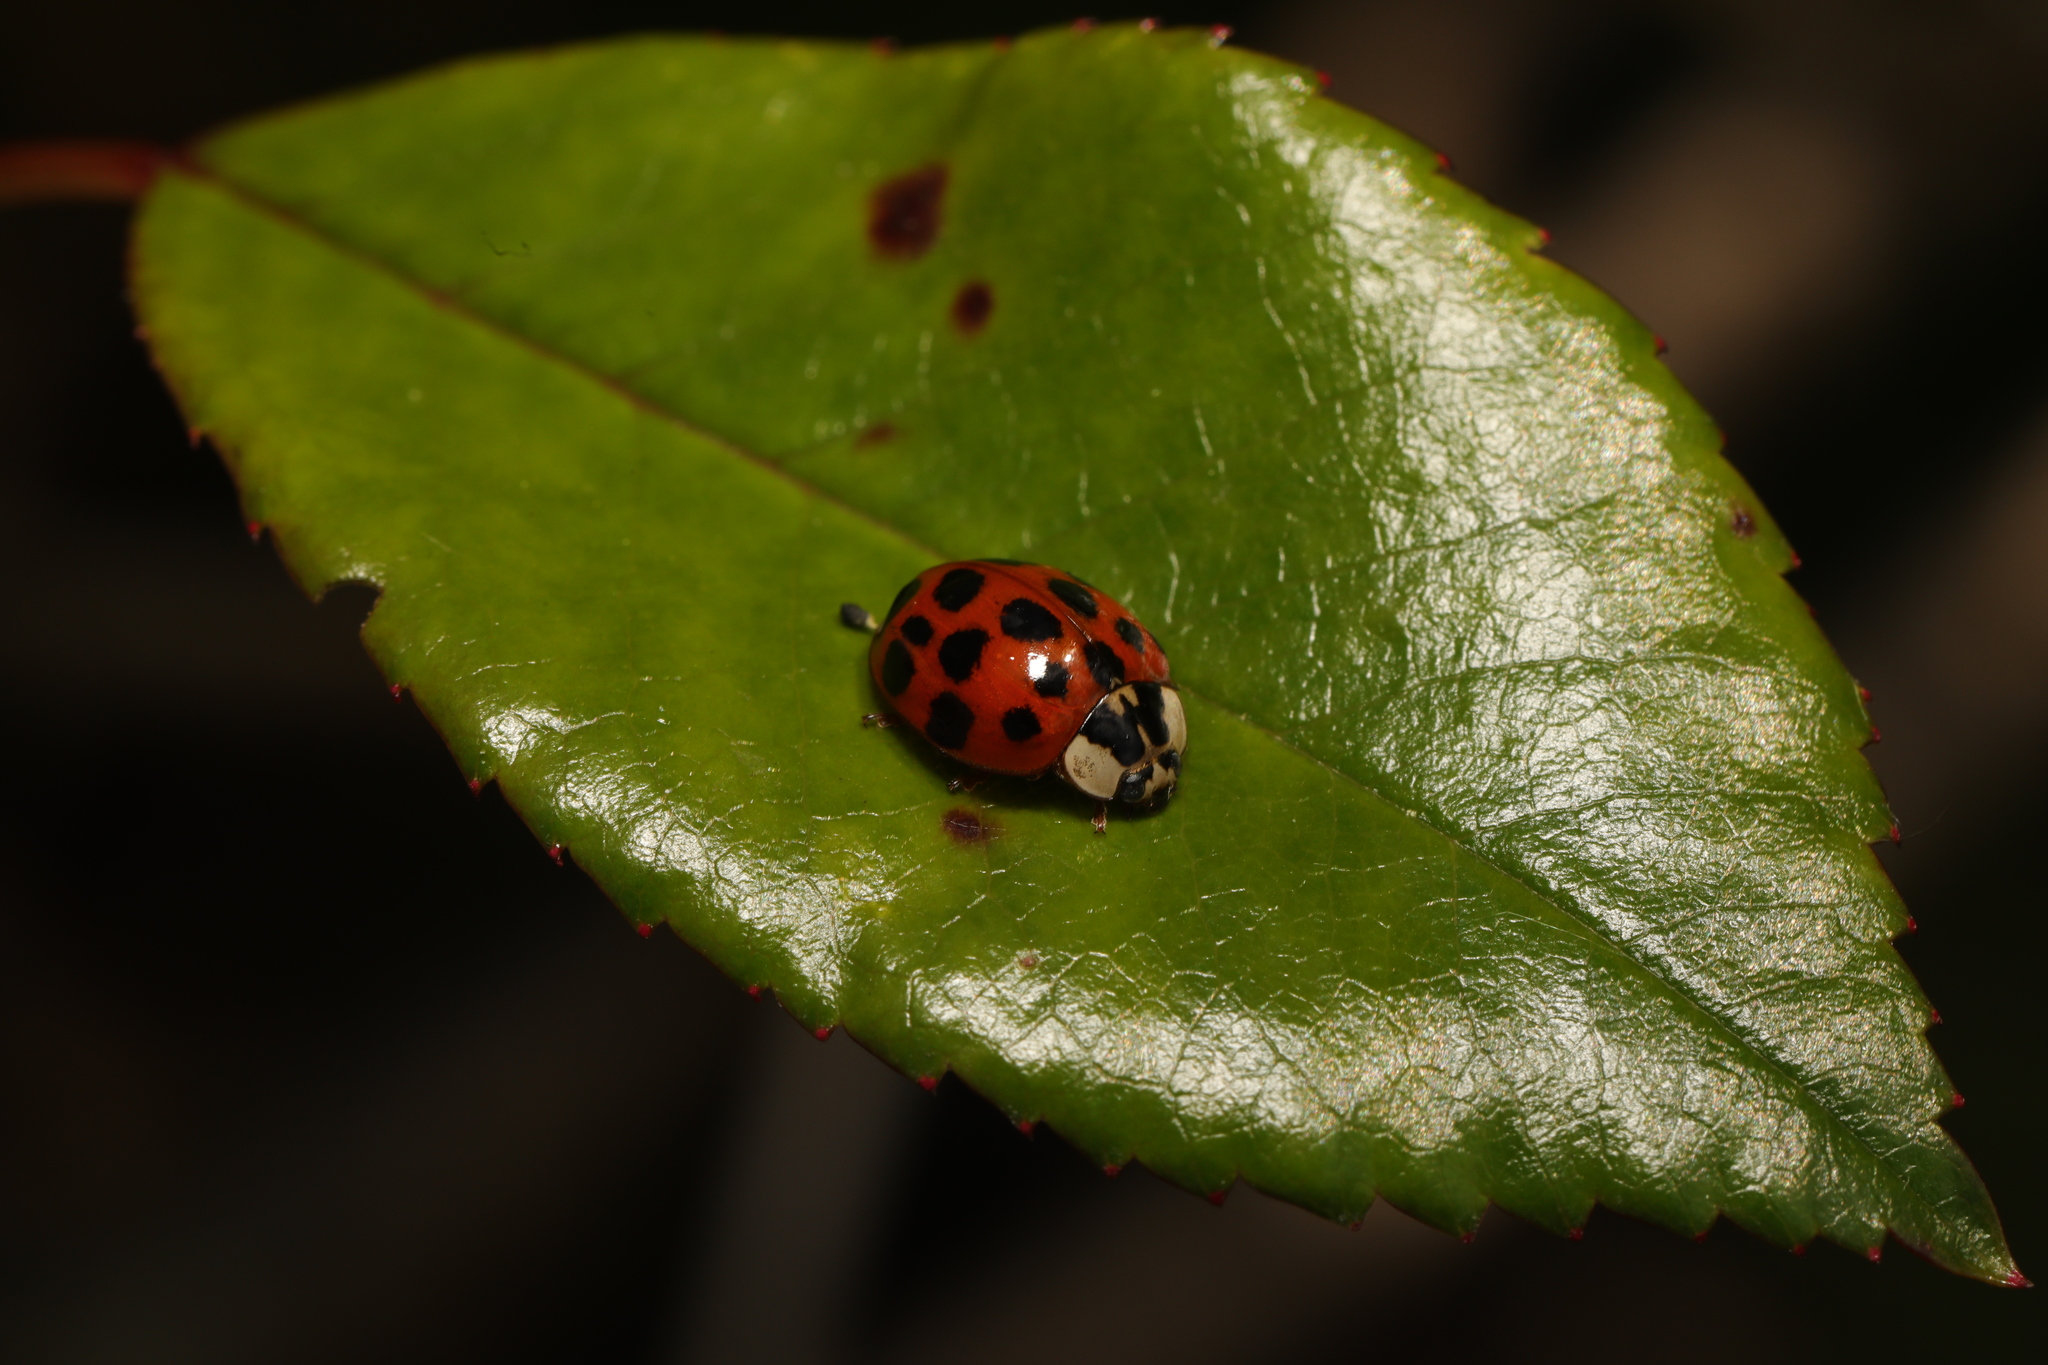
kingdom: Animalia
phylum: Arthropoda
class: Insecta
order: Coleoptera
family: Coccinellidae
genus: Harmonia
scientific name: Harmonia axyridis
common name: Harlequin ladybird
